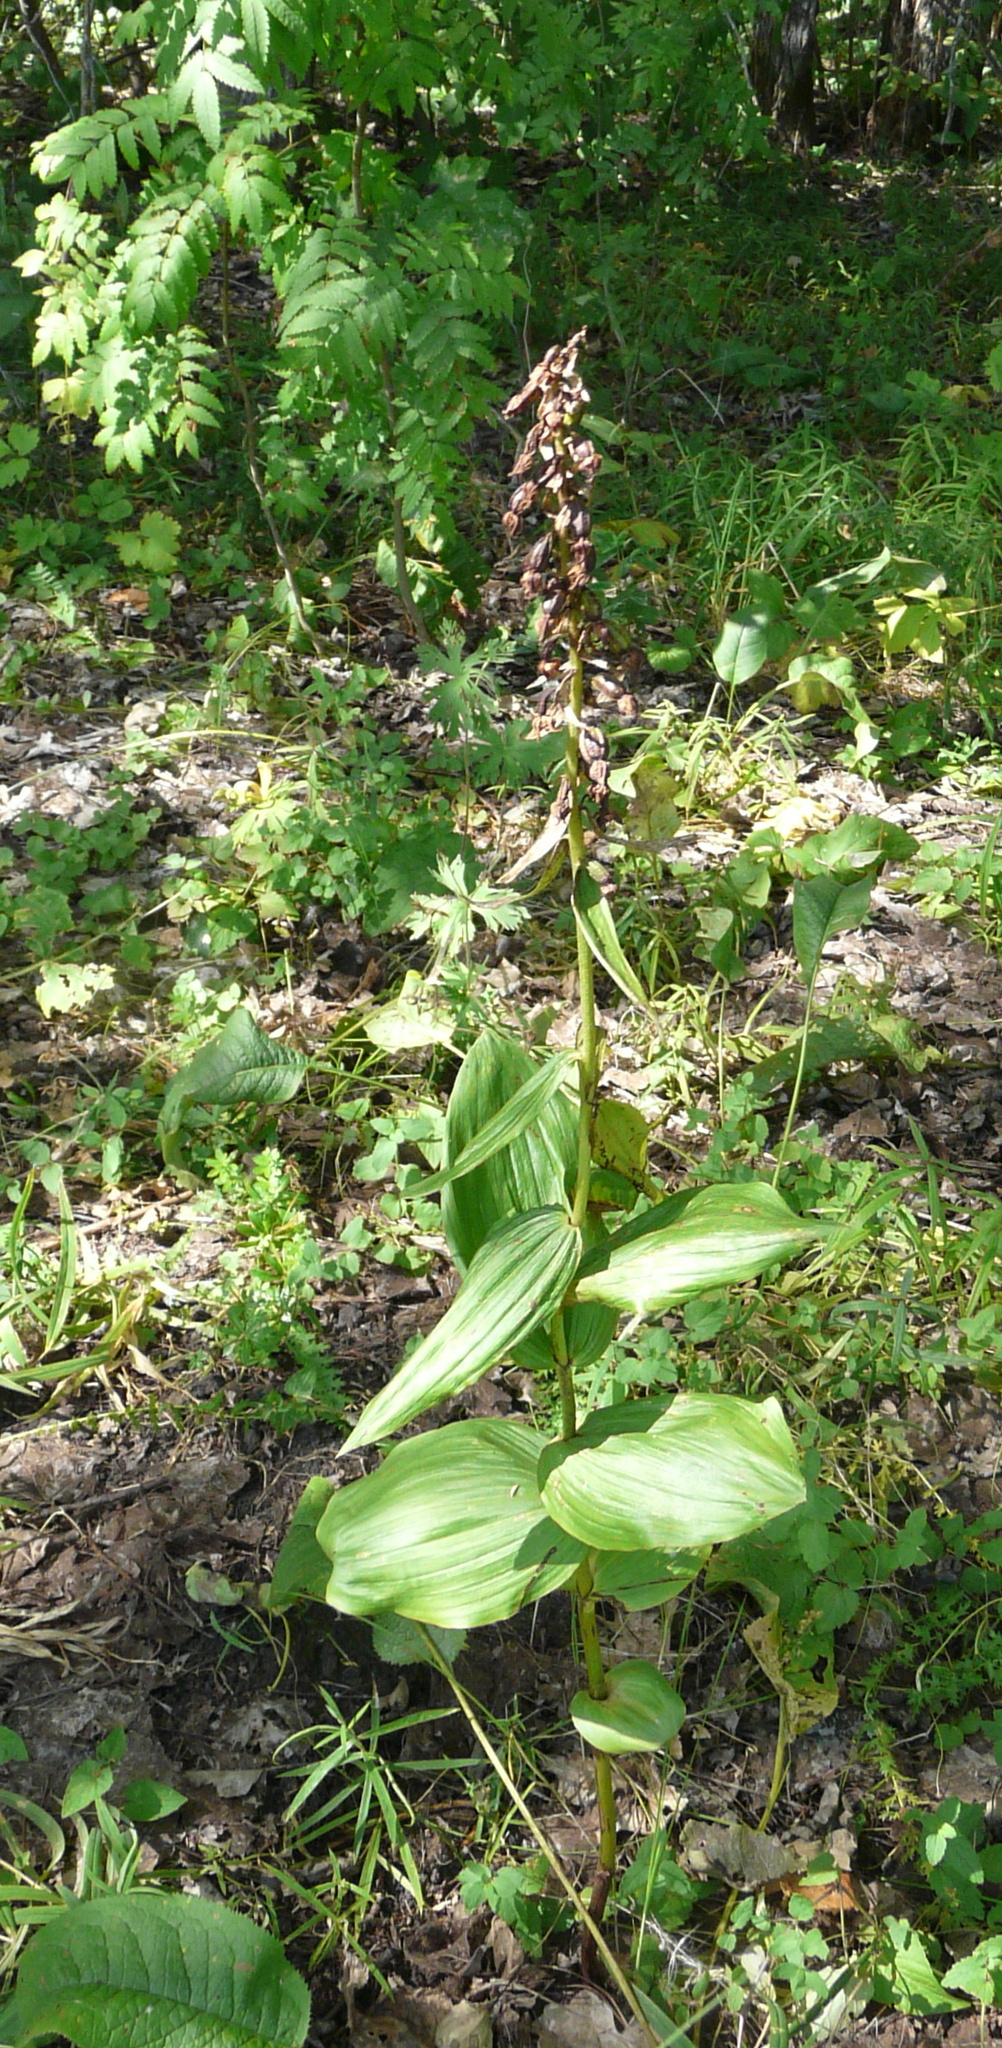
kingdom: Plantae
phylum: Tracheophyta
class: Liliopsida
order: Asparagales
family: Orchidaceae
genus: Epipactis
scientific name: Epipactis helleborine
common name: Broad-leaved helleborine
